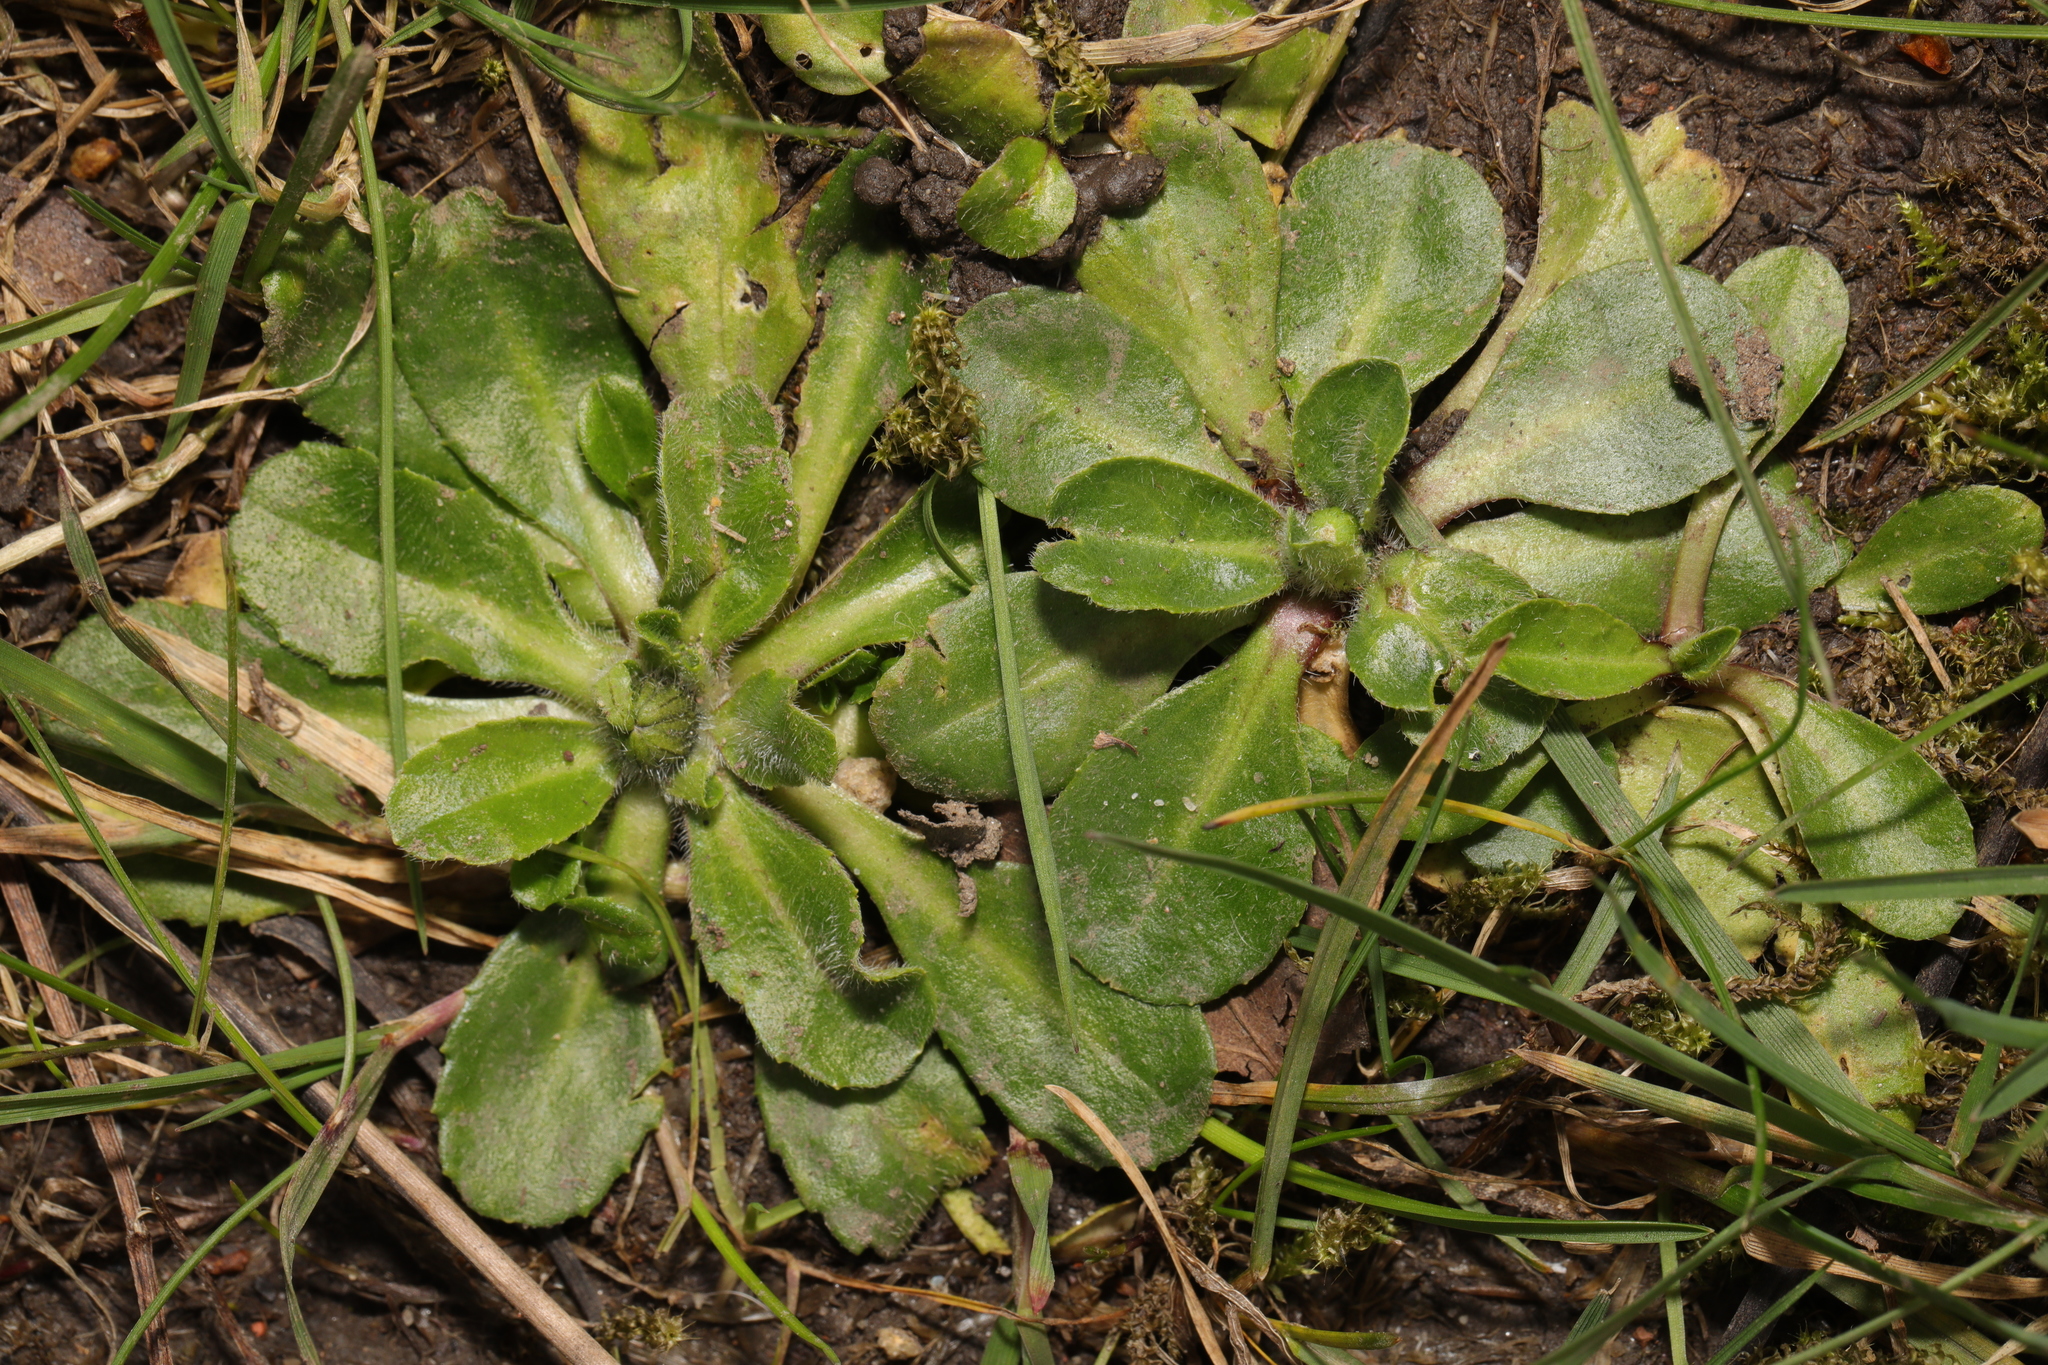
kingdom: Plantae
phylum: Tracheophyta
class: Magnoliopsida
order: Asterales
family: Asteraceae
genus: Bellis
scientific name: Bellis perennis
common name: Lawndaisy
